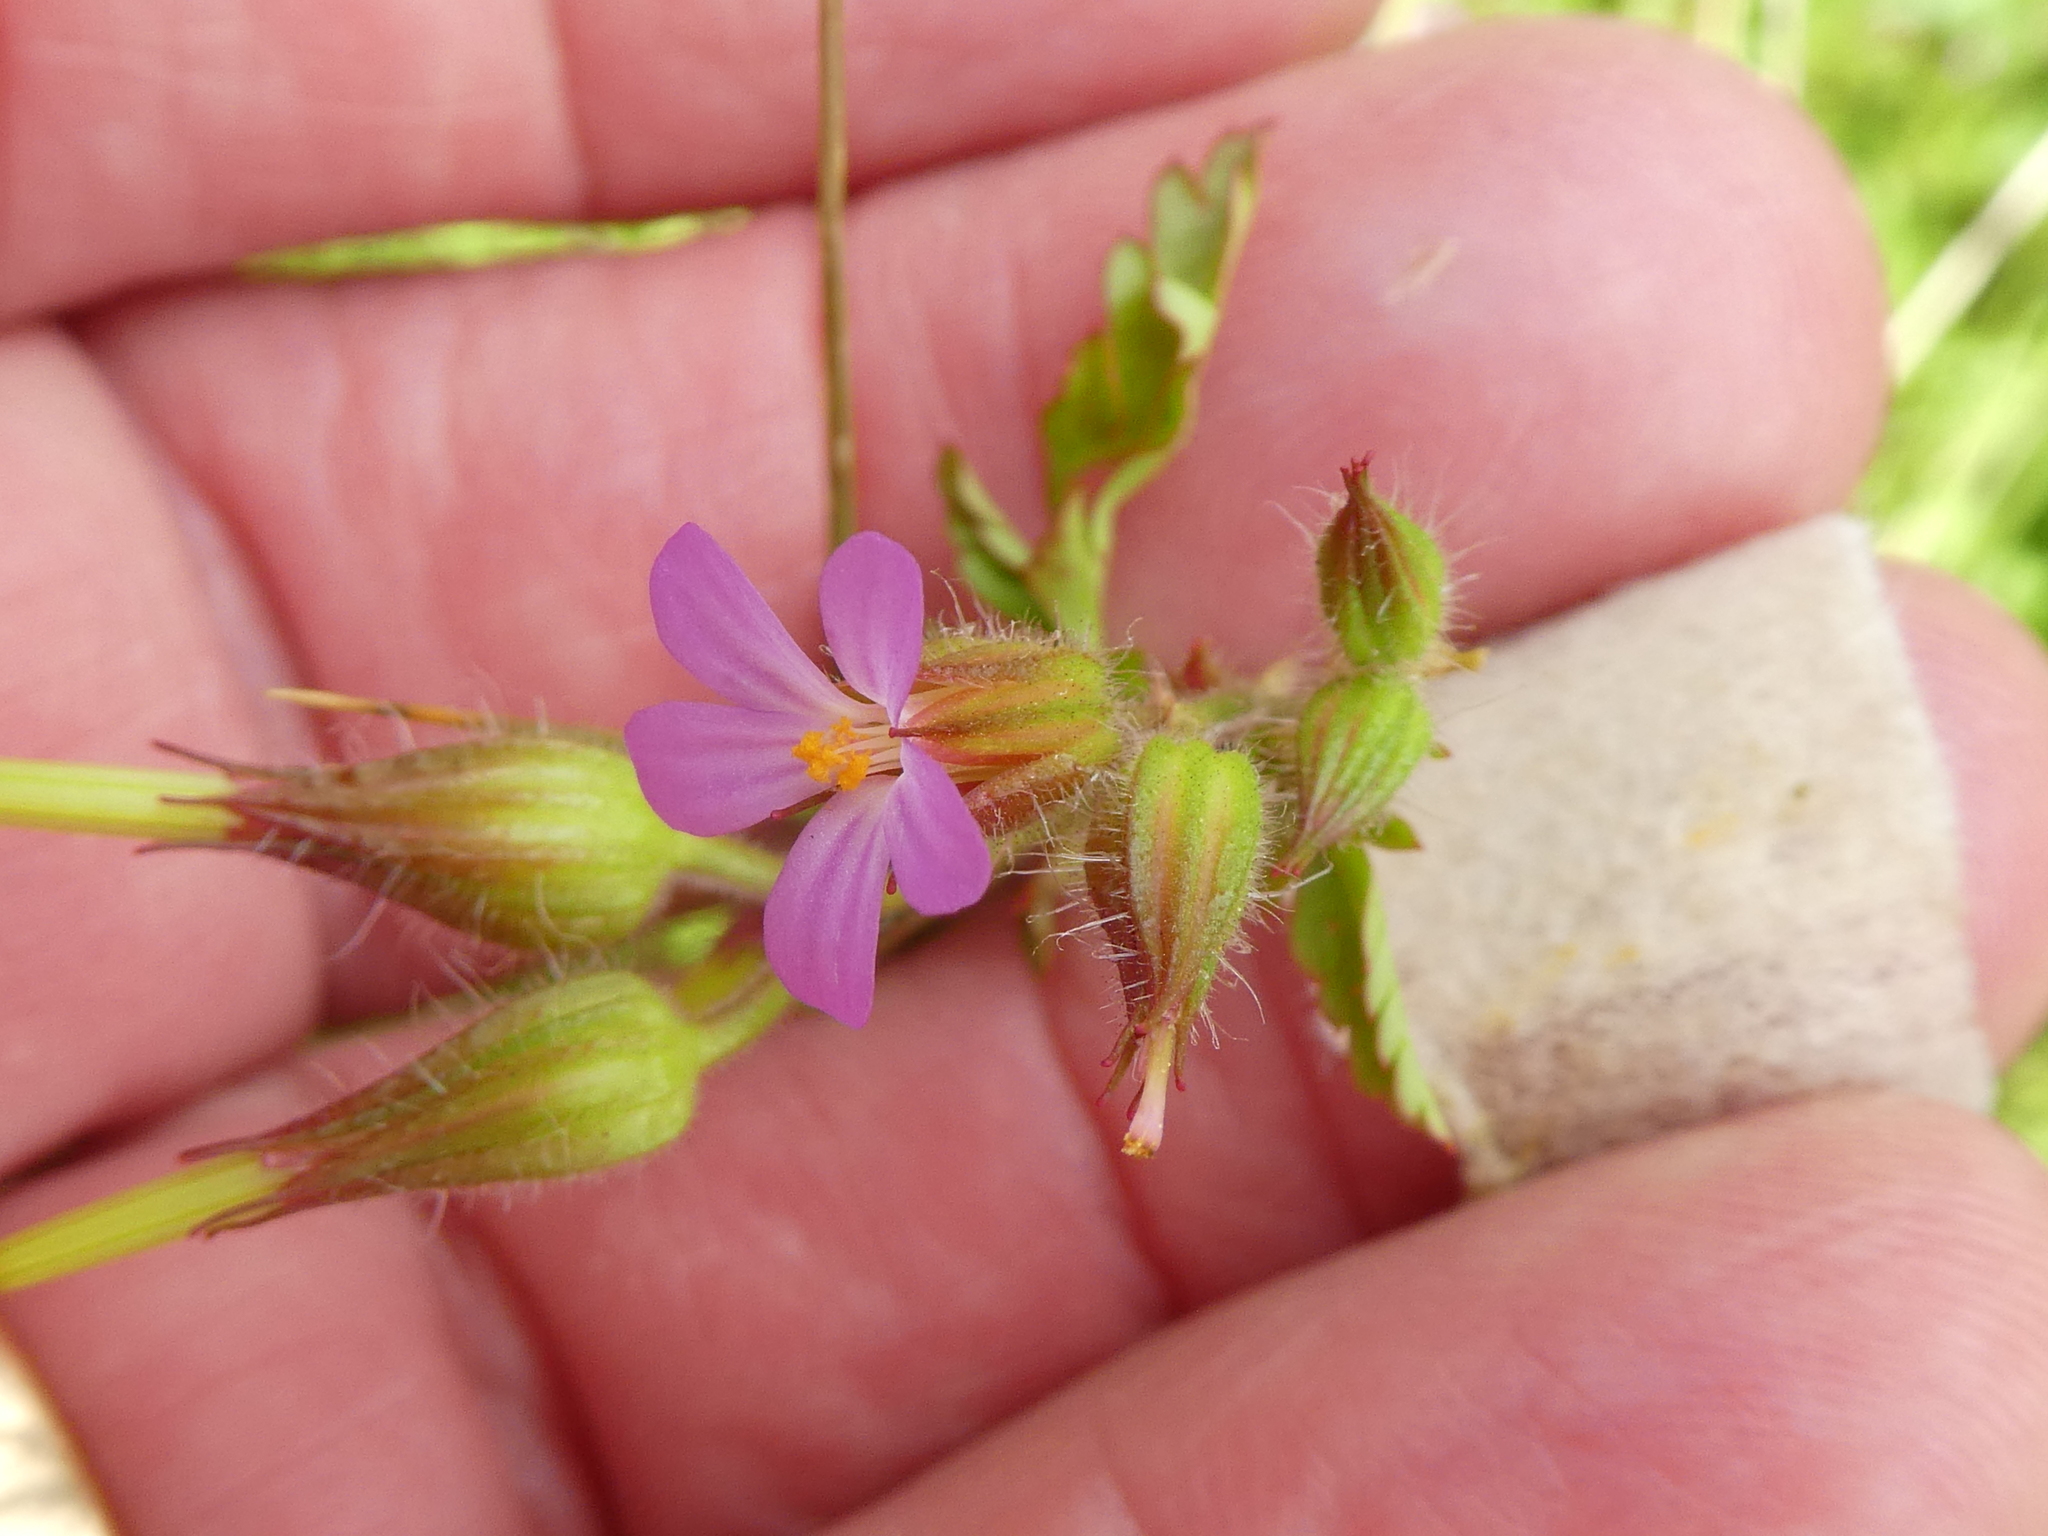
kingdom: Plantae
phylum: Tracheophyta
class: Magnoliopsida
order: Geraniales
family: Geraniaceae
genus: Geranium
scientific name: Geranium purpureum
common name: Little-robin
